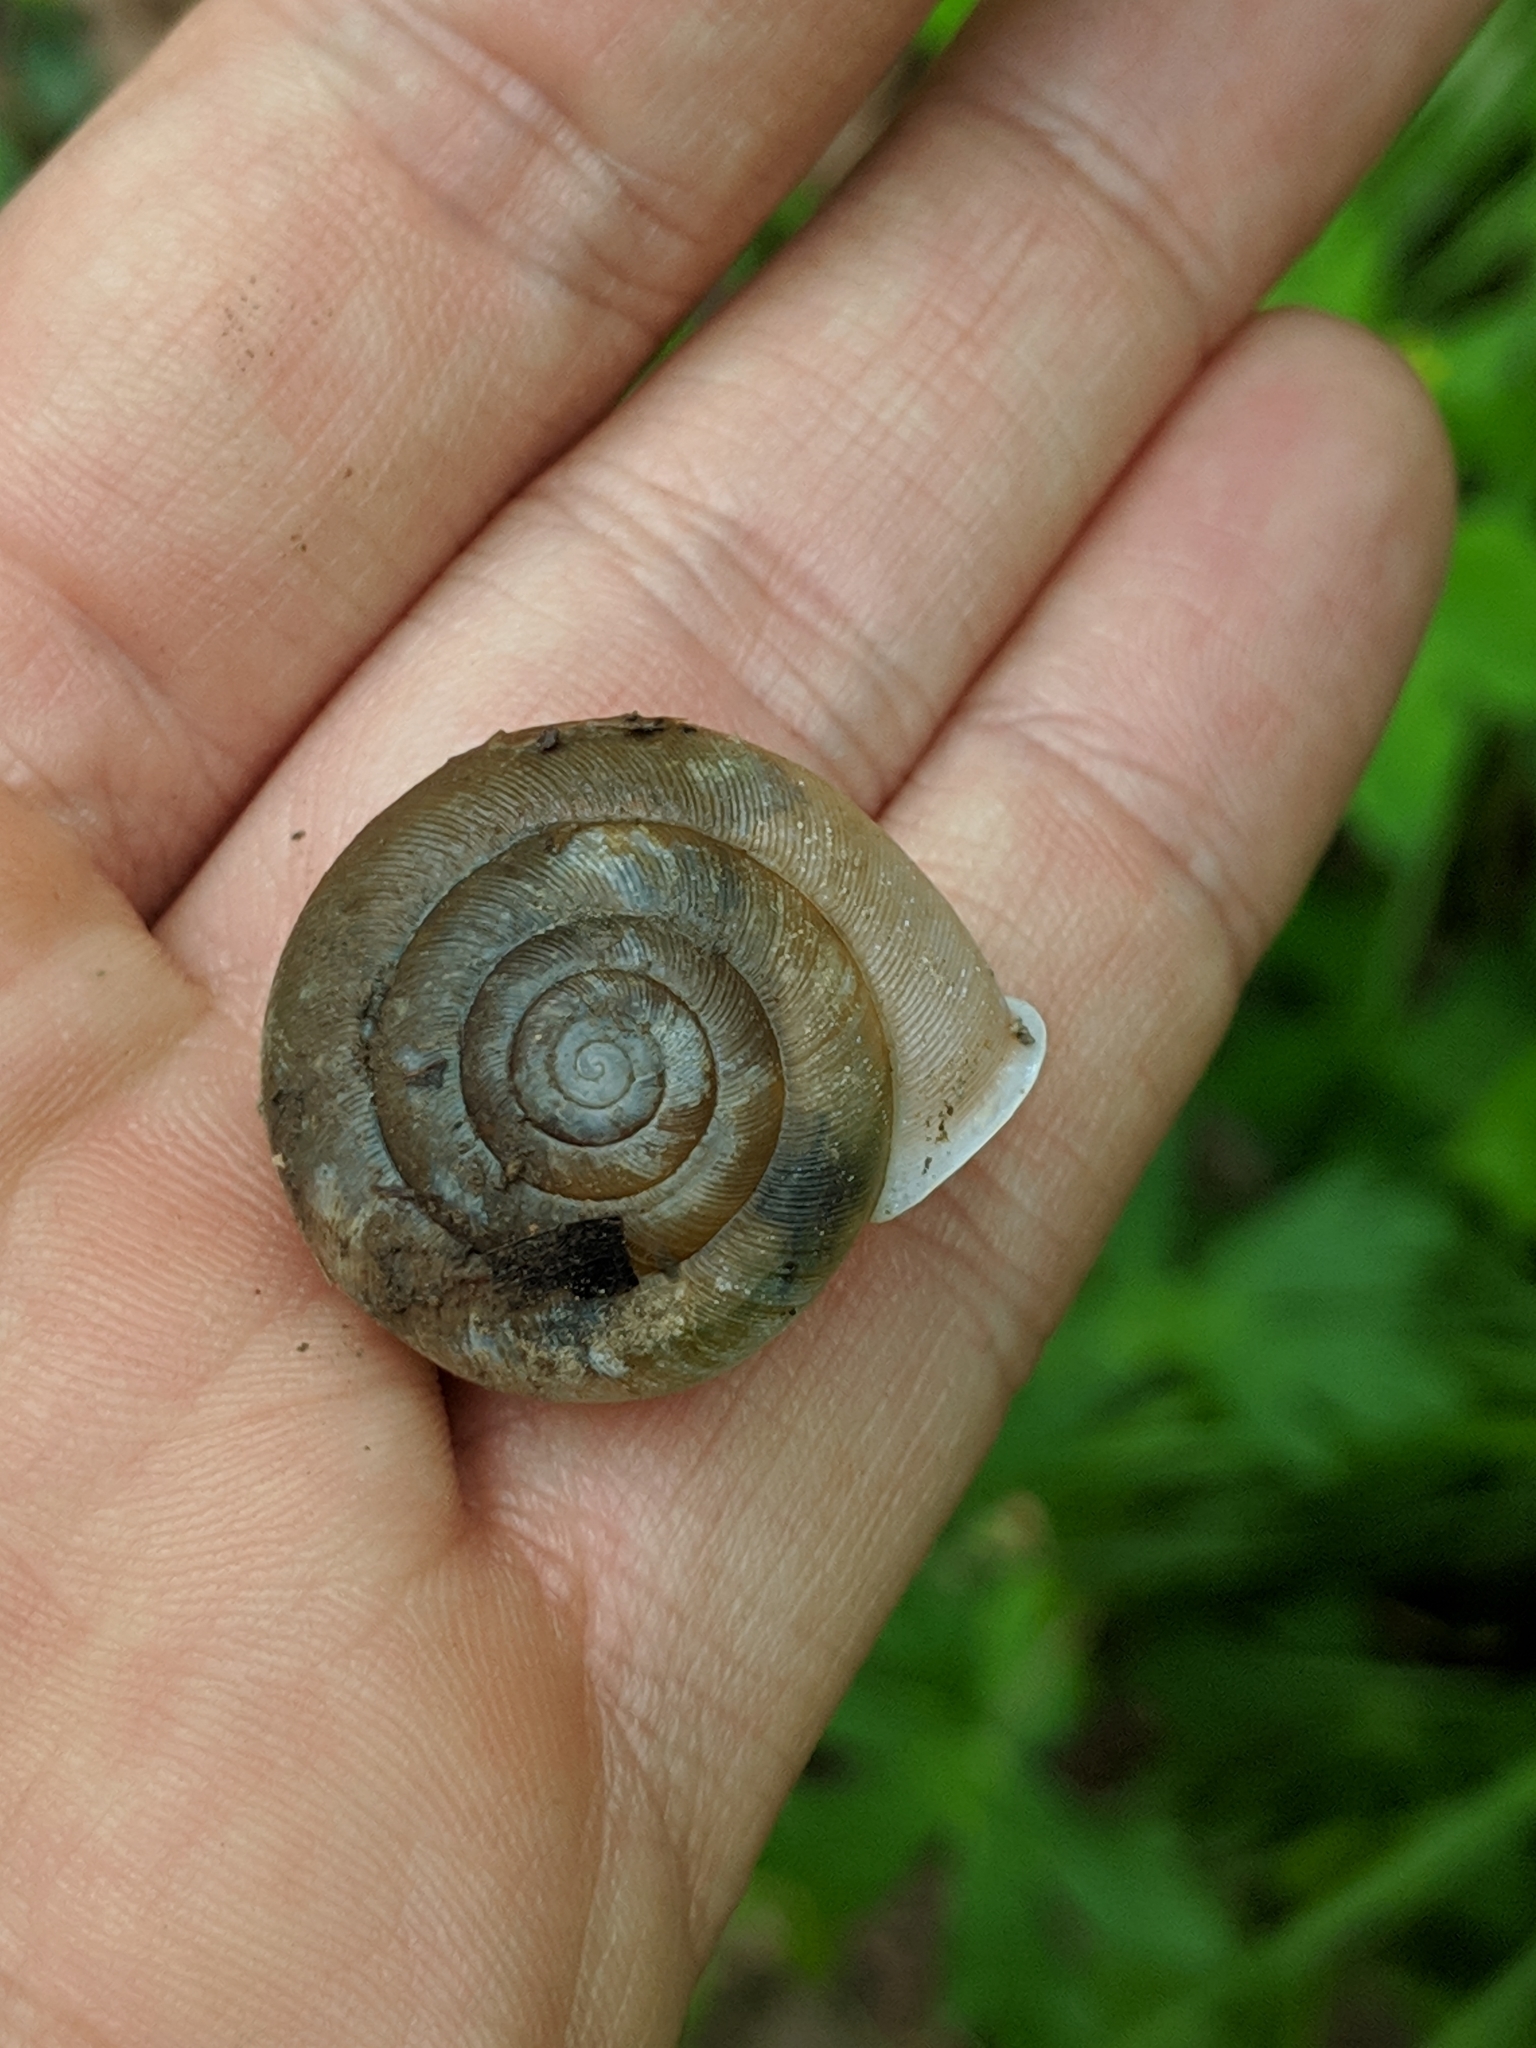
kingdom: Animalia
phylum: Mollusca
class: Gastropoda
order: Stylommatophora
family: Polygyridae
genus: Appalachina
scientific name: Appalachina sayana
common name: Spike-lip crater
